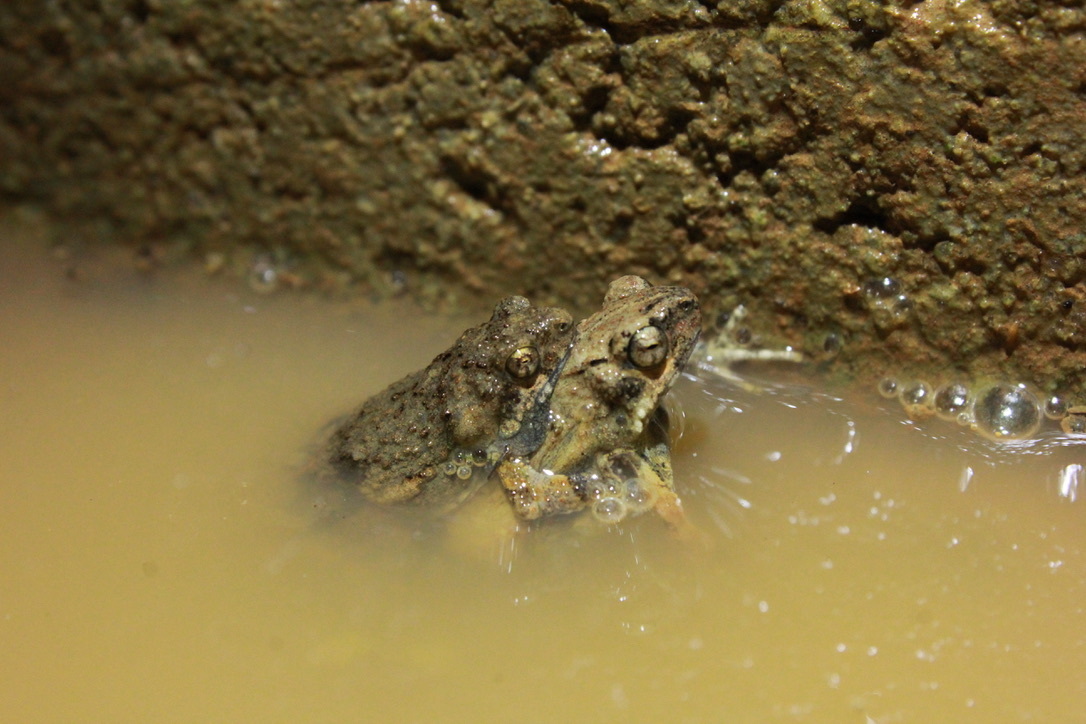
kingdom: Animalia
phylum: Chordata
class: Amphibia
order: Anura
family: Leptodactylidae
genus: Engystomops
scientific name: Engystomops pustulosus
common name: Tungara frog
